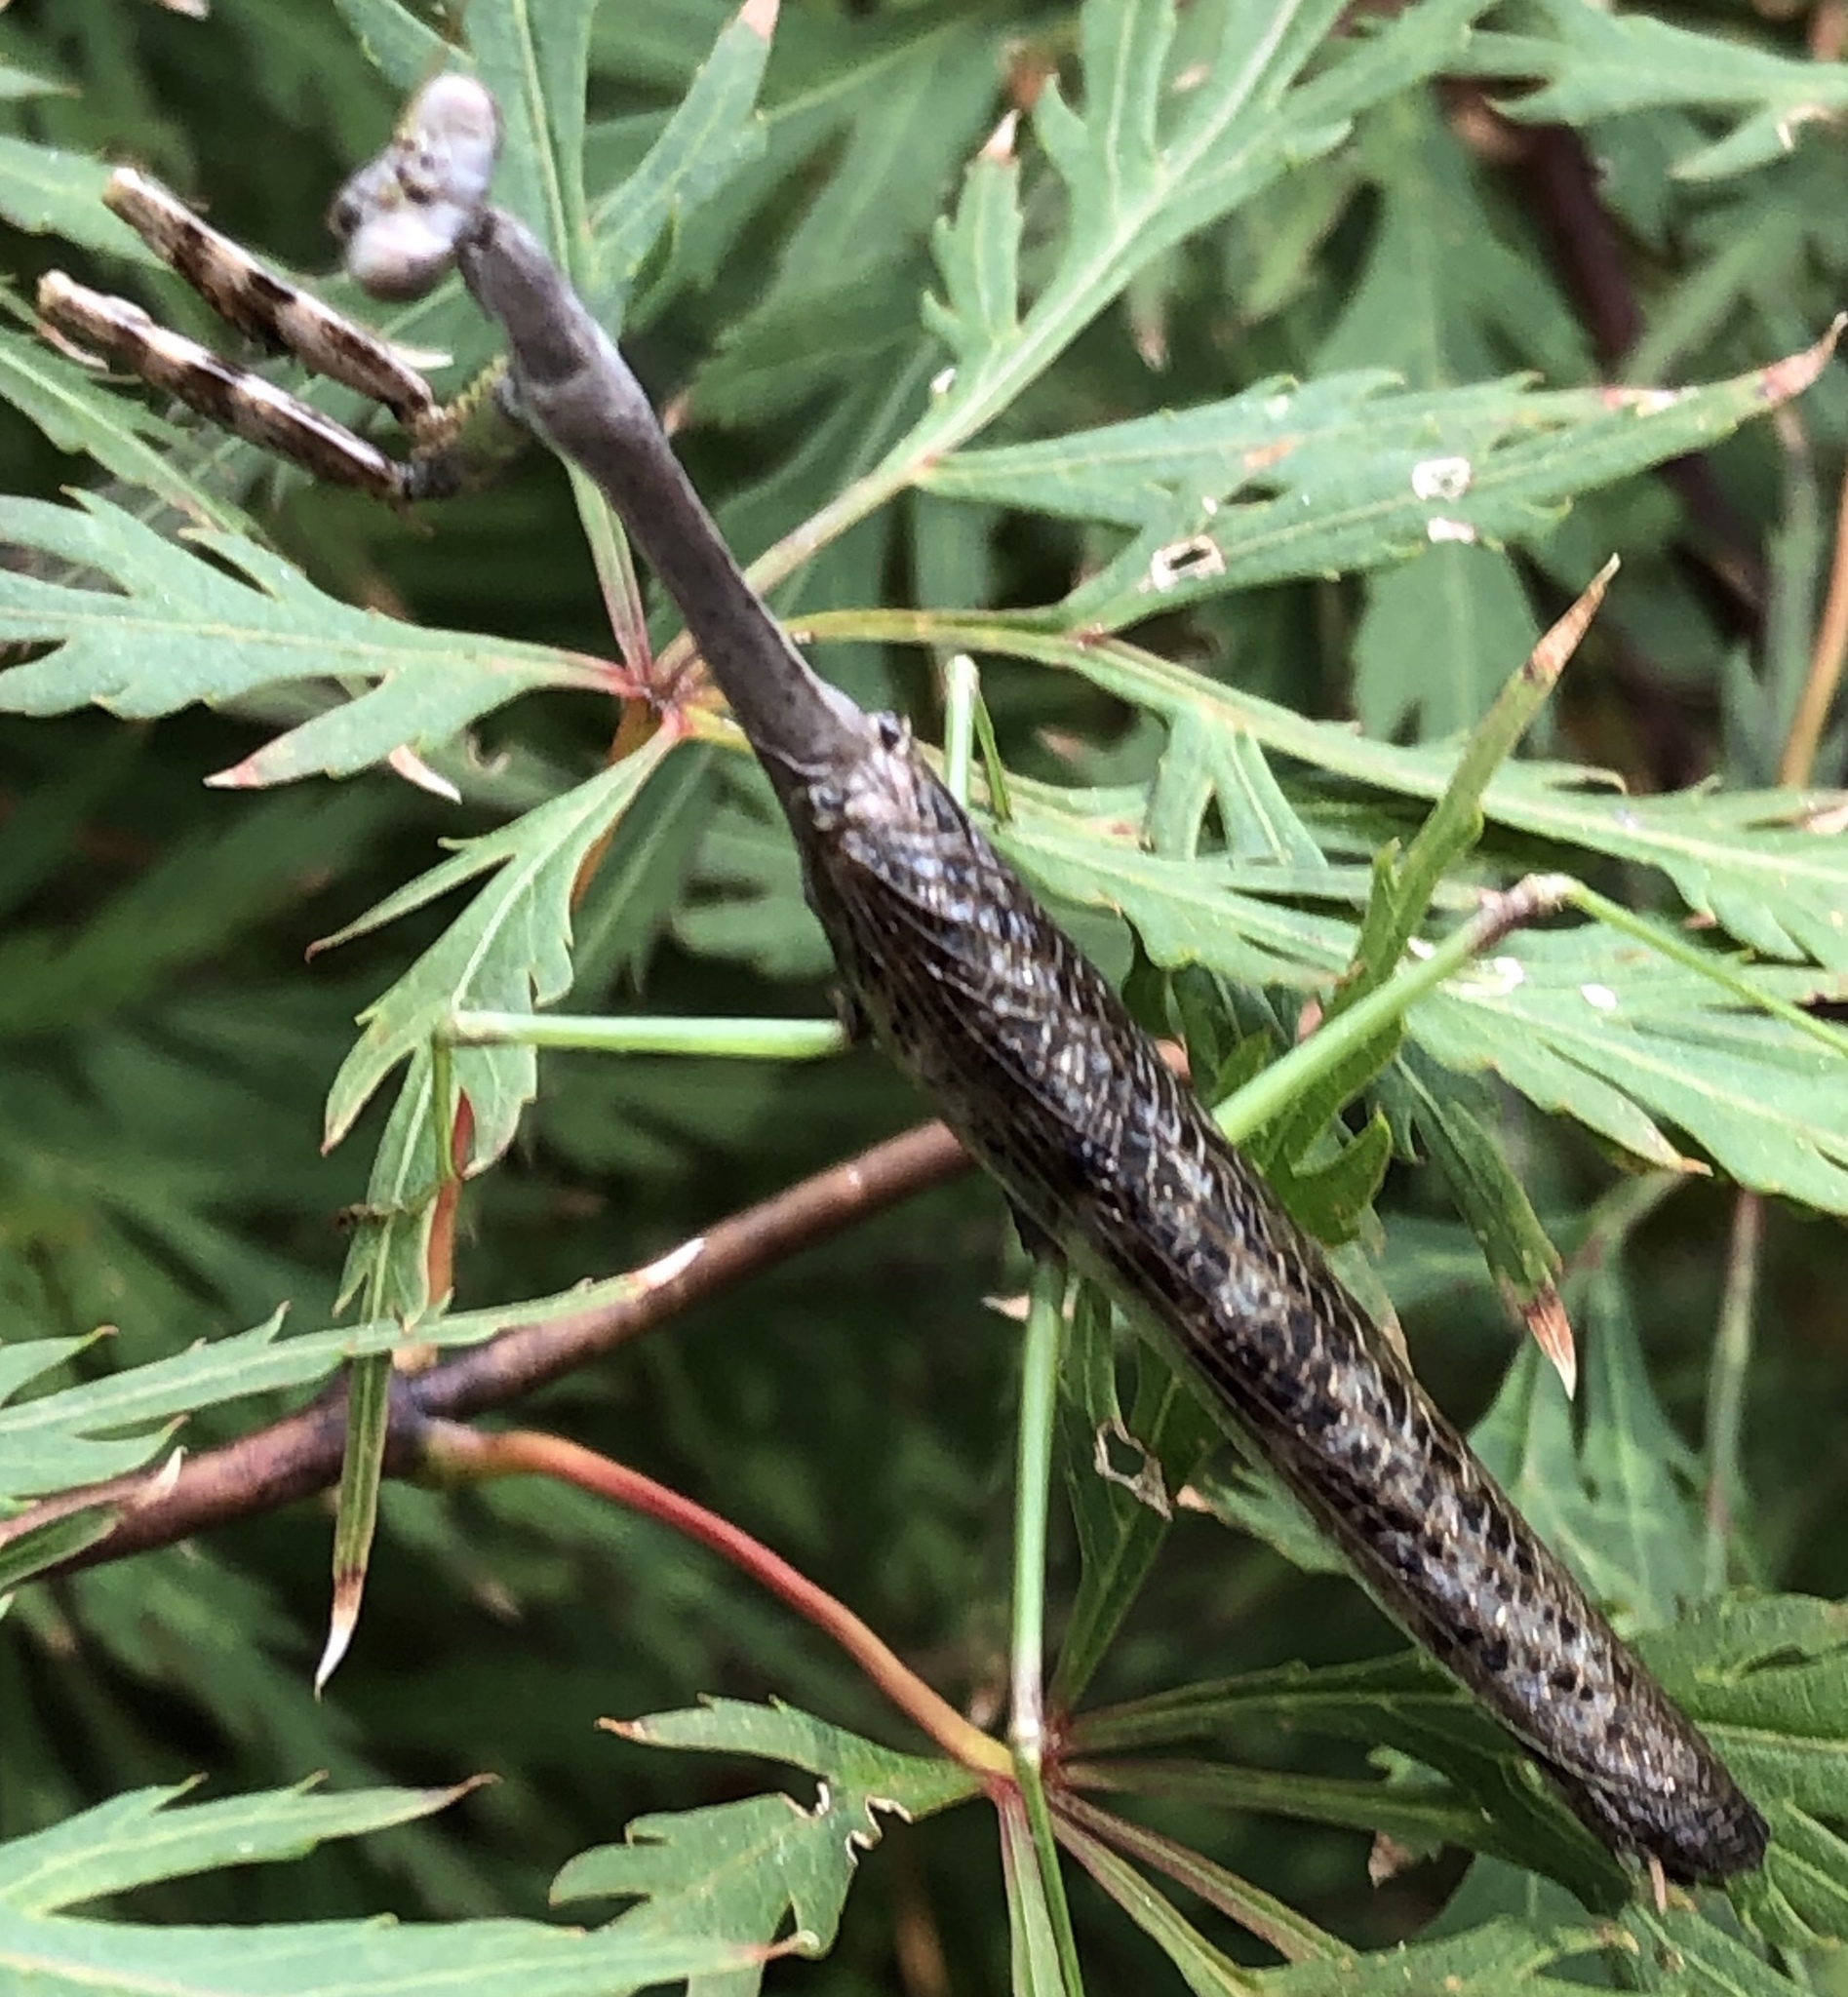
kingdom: Animalia
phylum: Arthropoda
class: Insecta
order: Mantodea
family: Mantidae
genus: Stagmomantis
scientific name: Stagmomantis carolina
